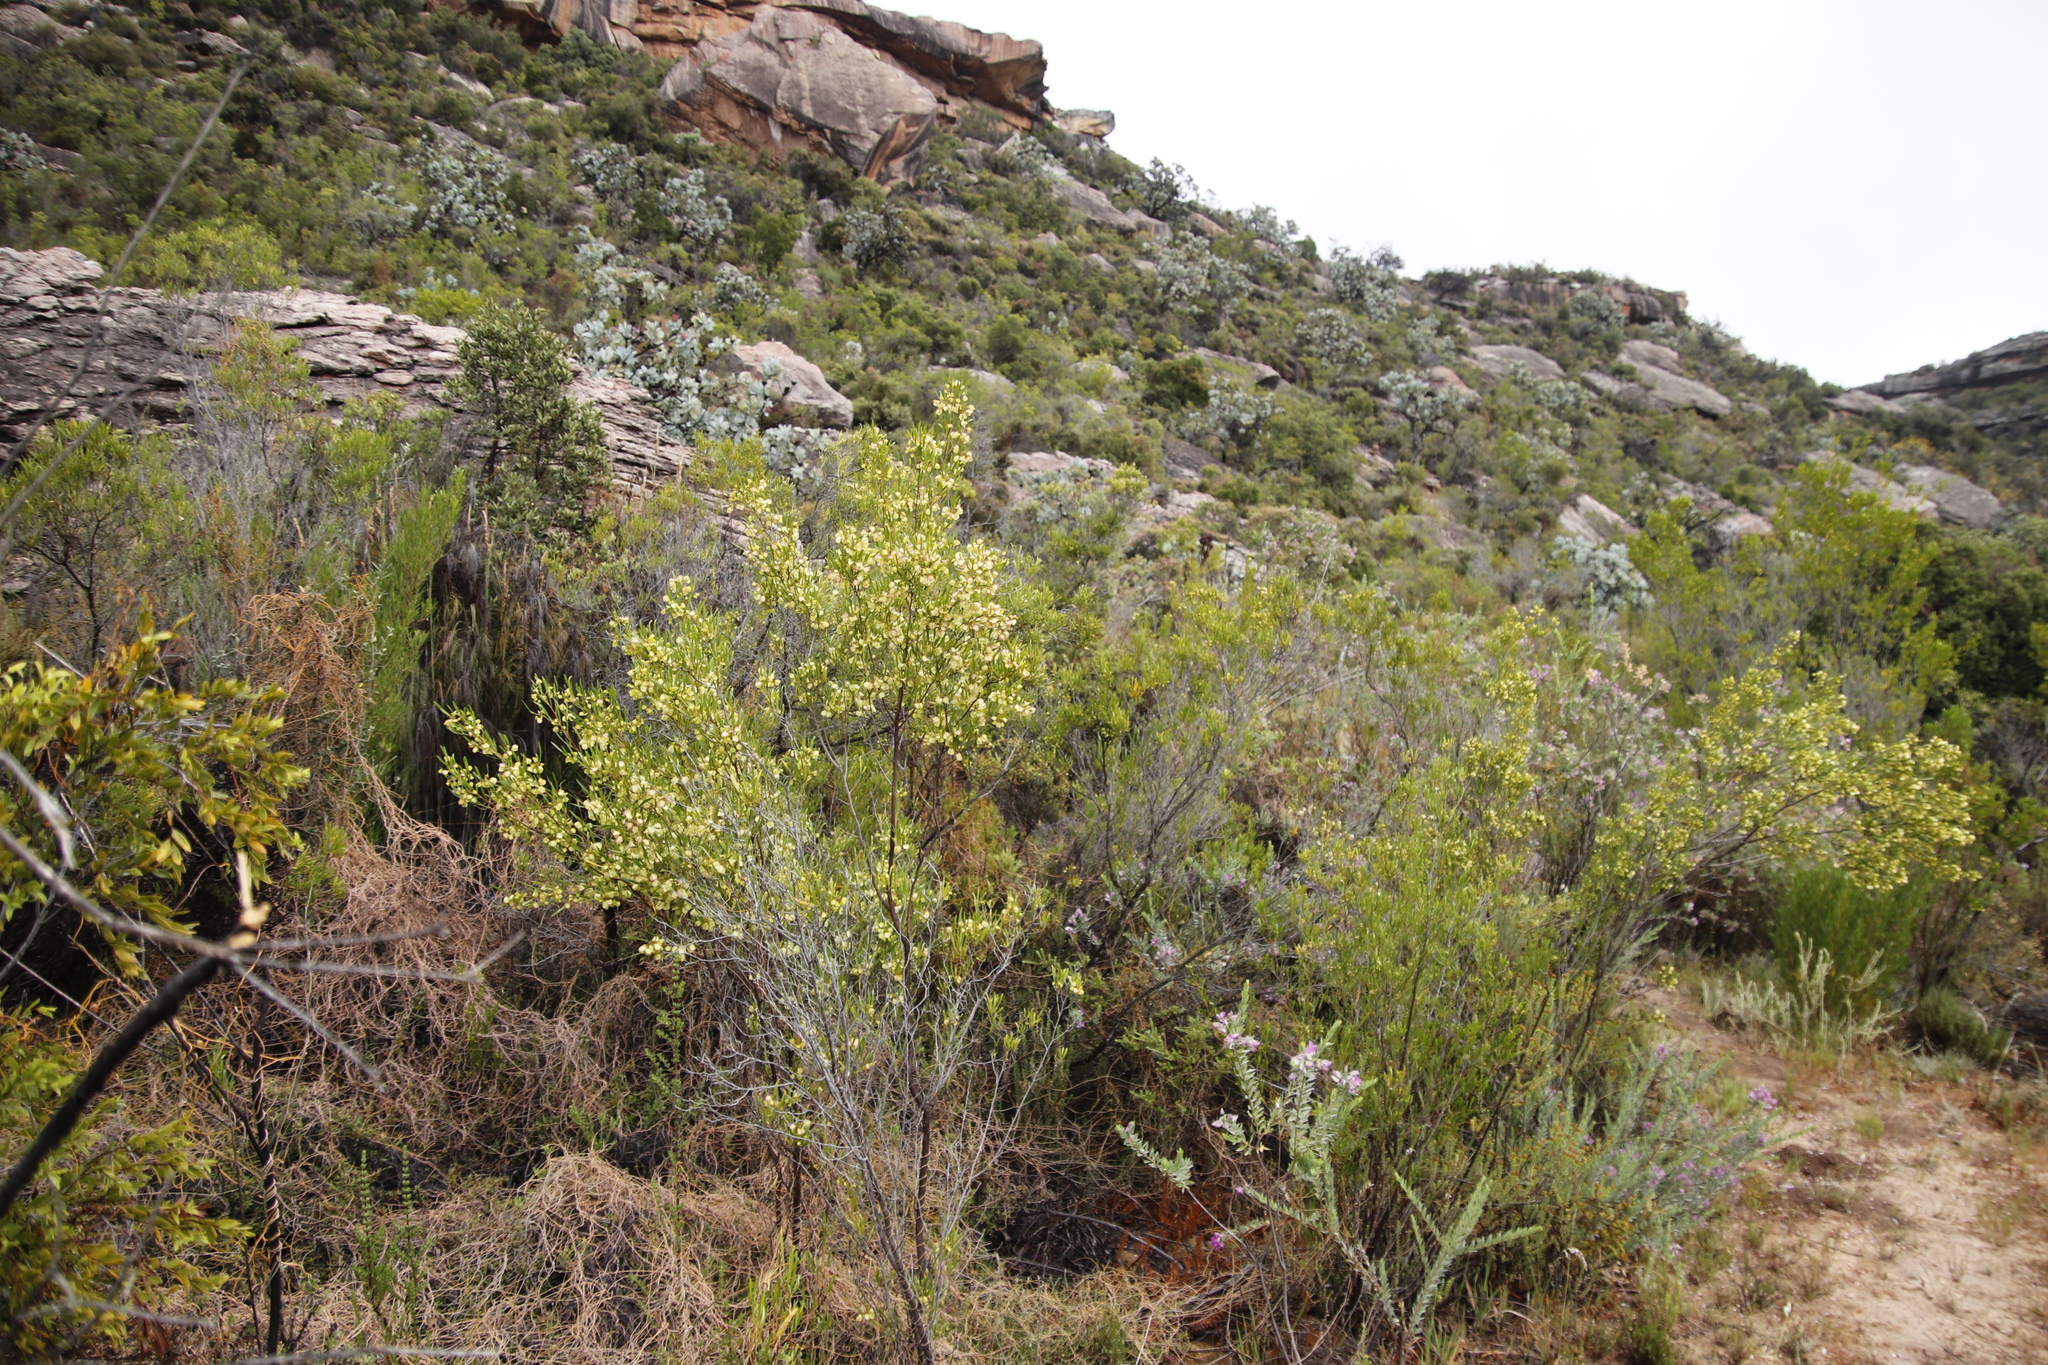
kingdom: Plantae
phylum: Tracheophyta
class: Magnoliopsida
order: Sapindales
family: Sapindaceae
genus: Dodonaea
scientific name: Dodonaea viscosa
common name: Hopbush
